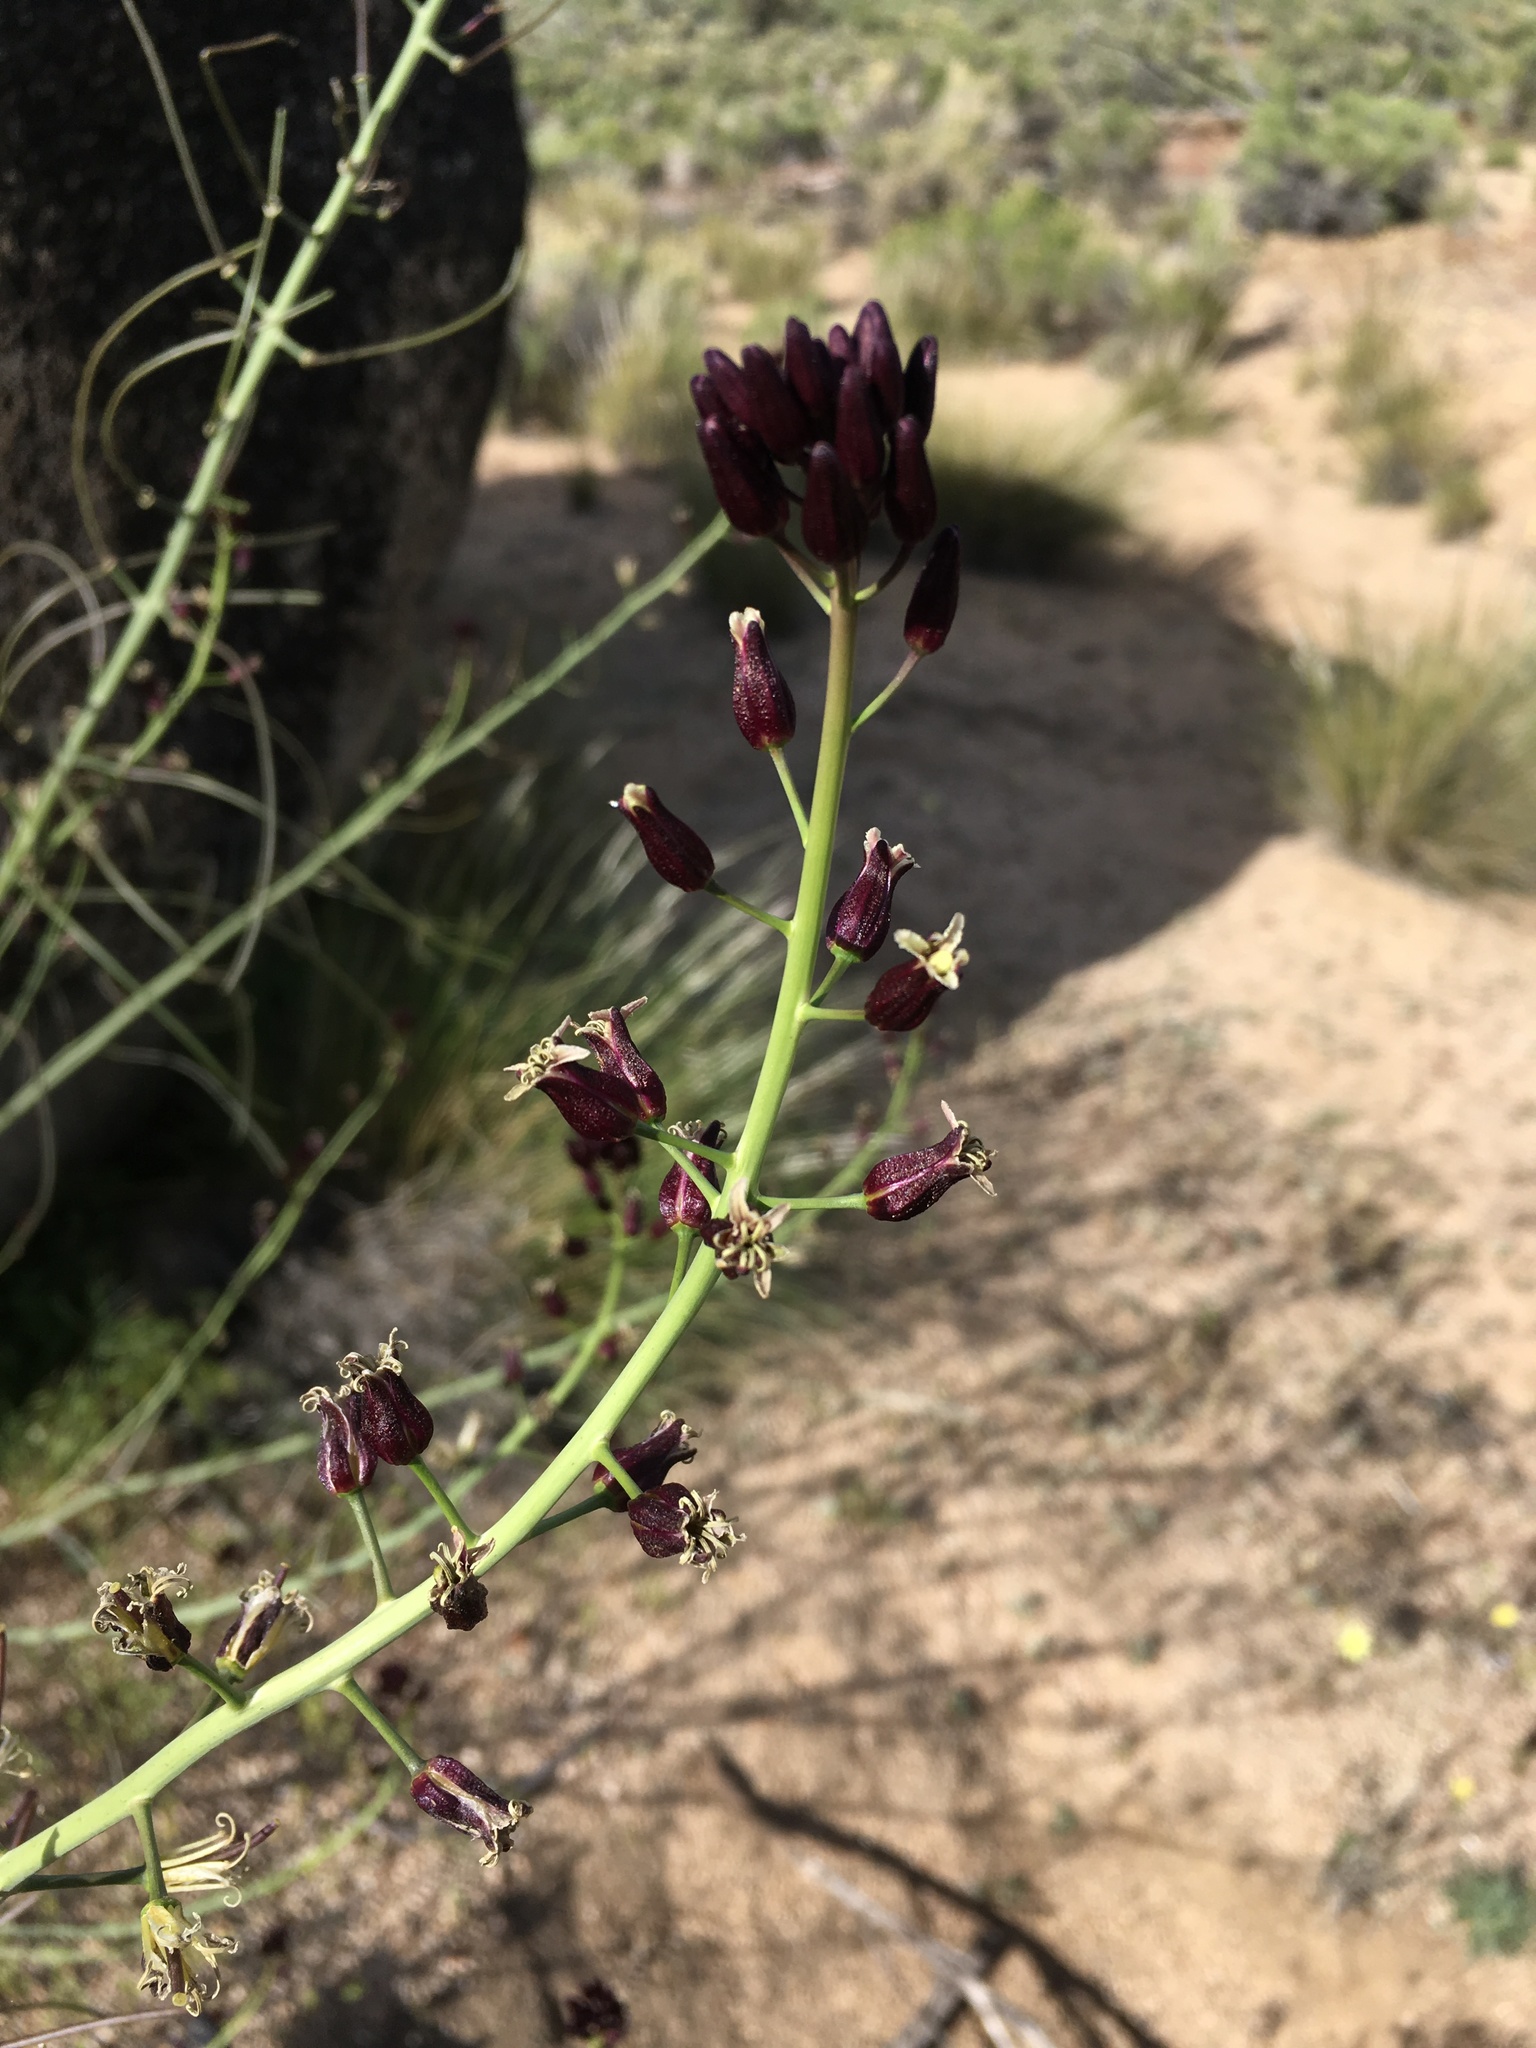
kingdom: Plantae
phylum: Tracheophyta
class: Magnoliopsida
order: Brassicales
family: Brassicaceae
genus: Streptanthus
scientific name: Streptanthus pilosus
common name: Chocolate drops
